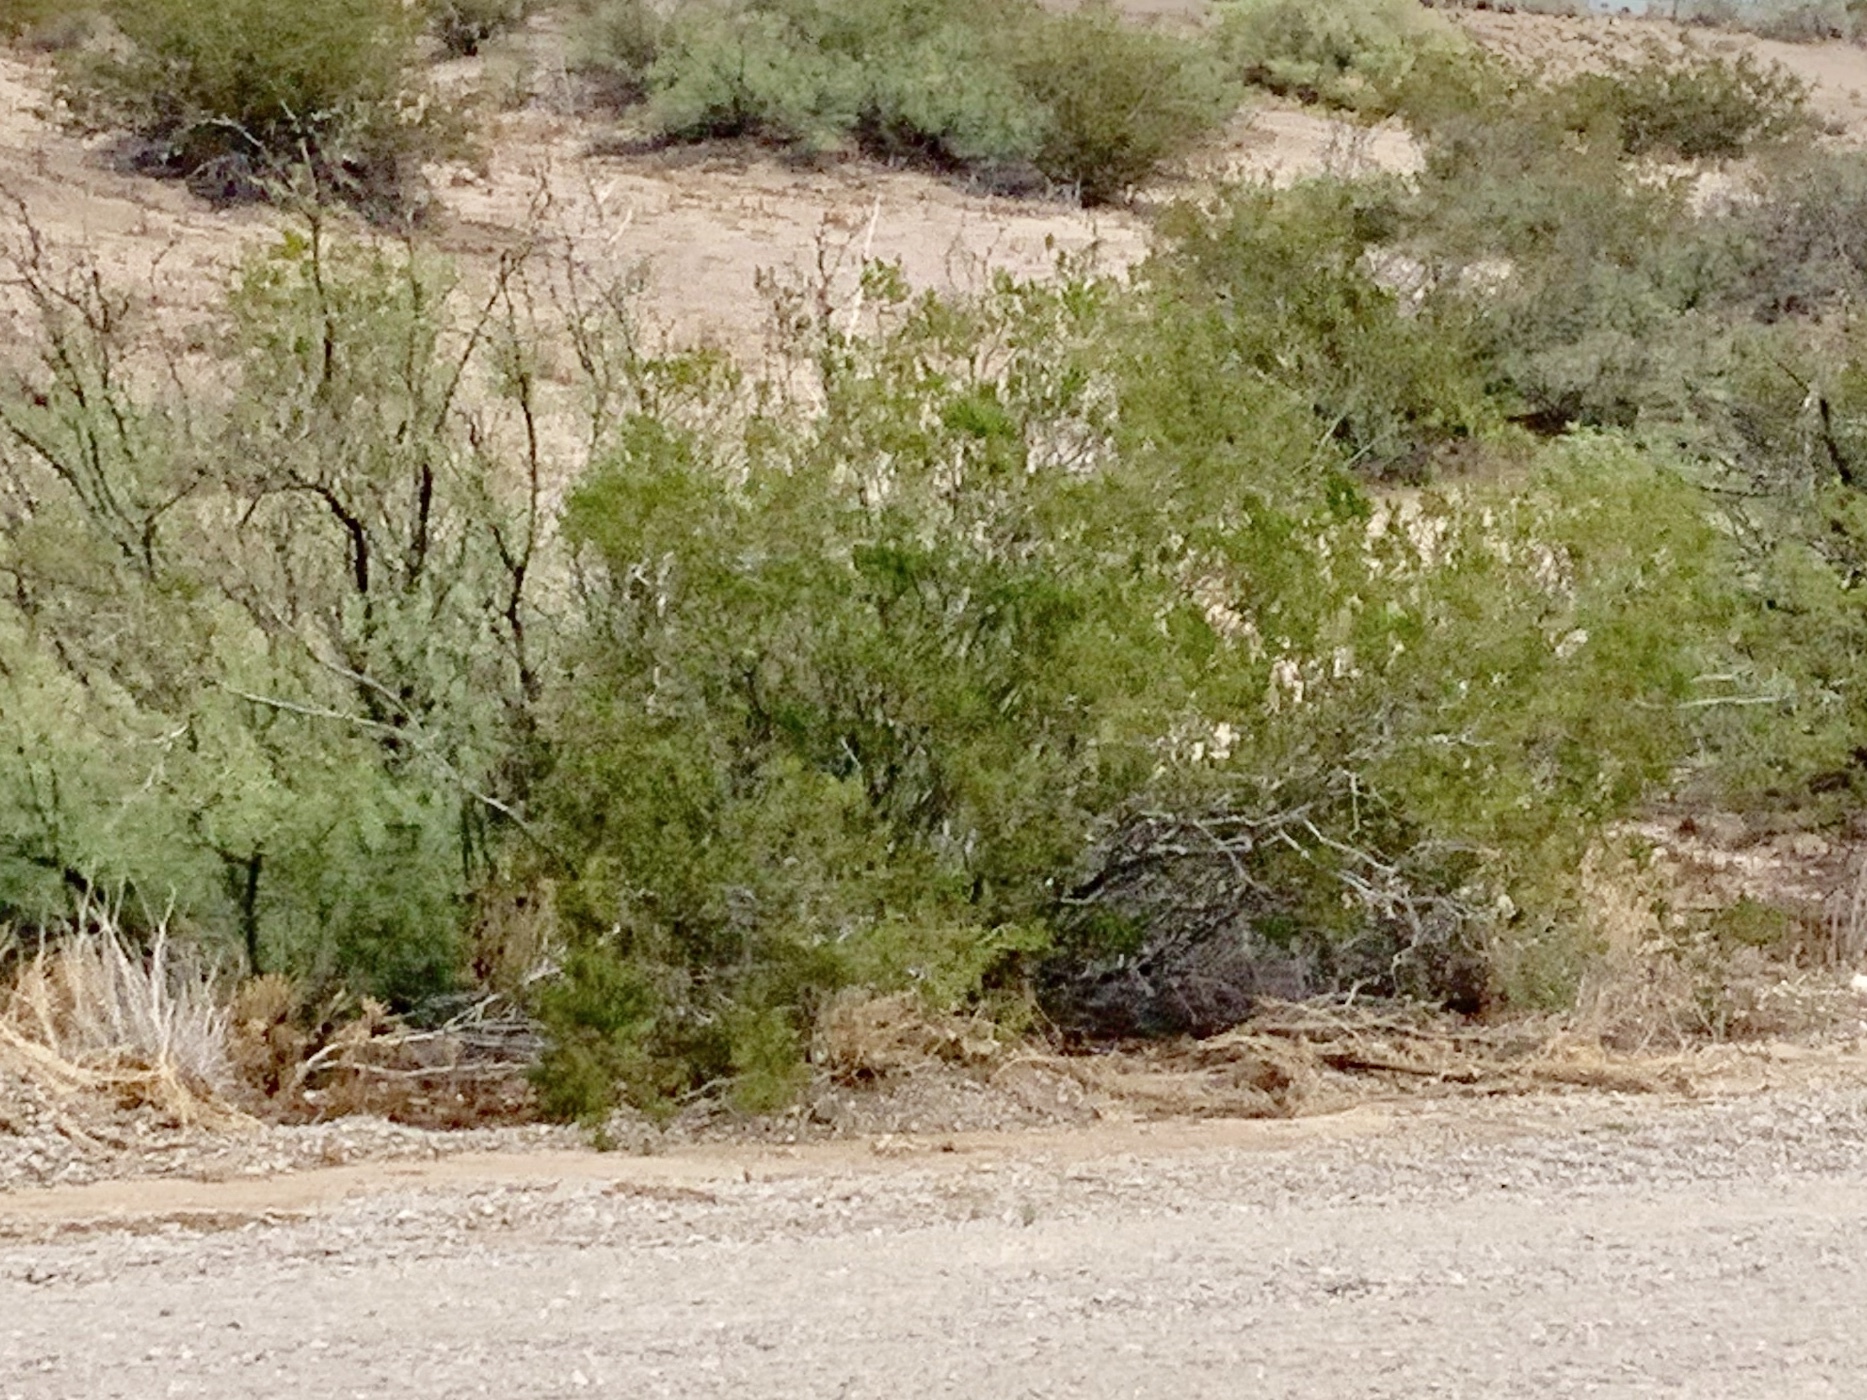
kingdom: Plantae
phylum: Tracheophyta
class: Magnoliopsida
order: Zygophyllales
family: Zygophyllaceae
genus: Larrea
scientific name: Larrea tridentata
